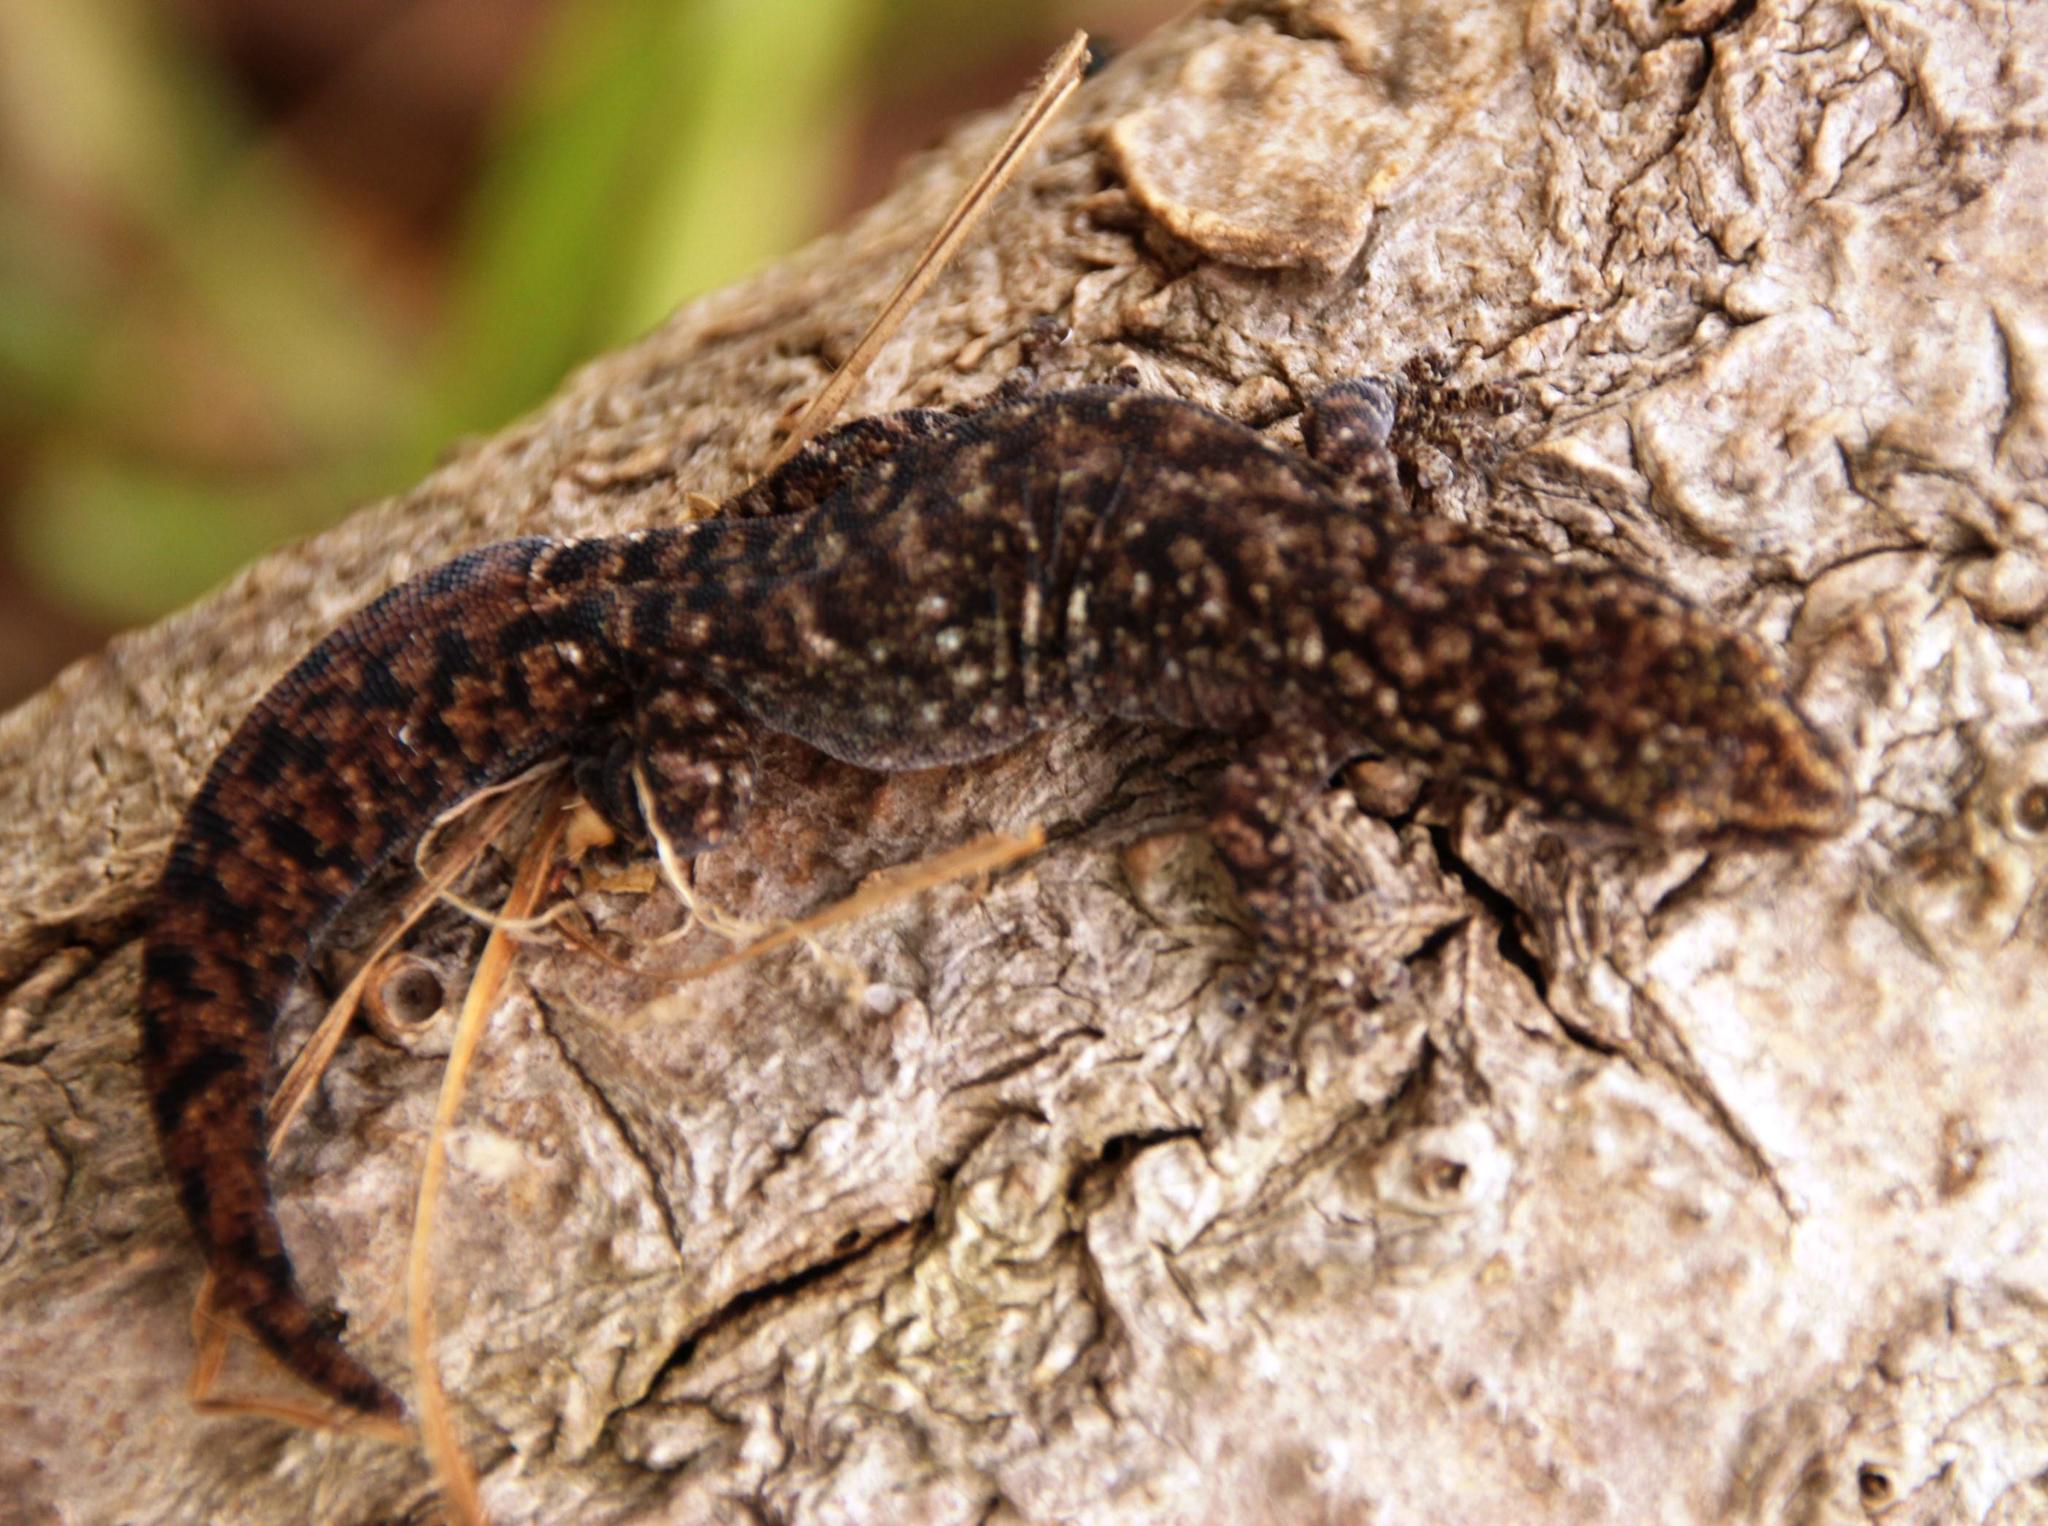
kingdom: Animalia
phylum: Chordata
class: Squamata
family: Gekkonidae
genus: Afrogecko
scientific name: Afrogecko porphyreus
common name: Marbled leaf-toed gecko
